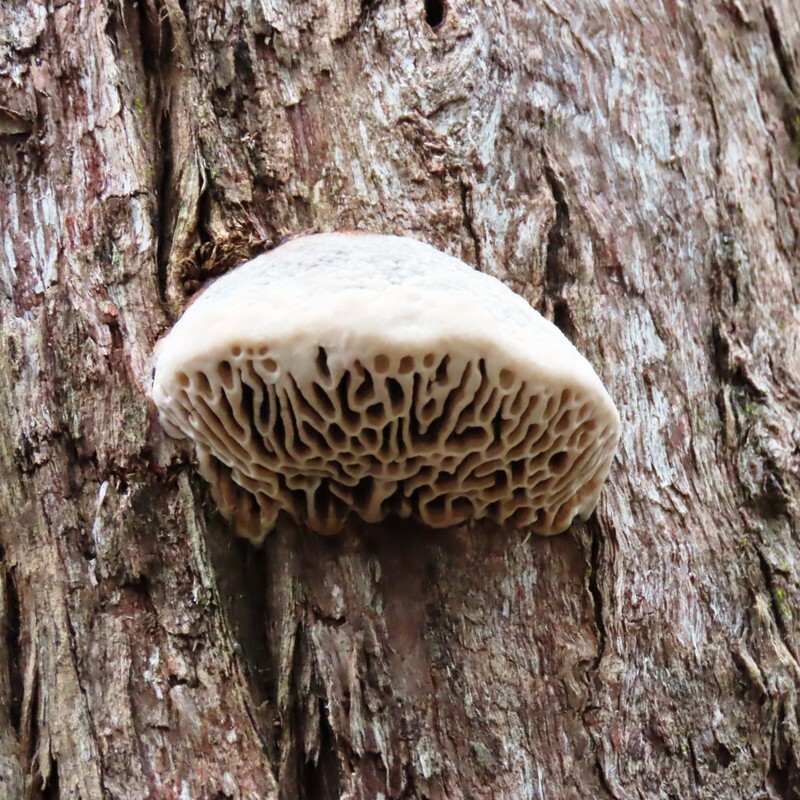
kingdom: Fungi
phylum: Basidiomycota
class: Agaricomycetes
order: Polyporales
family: Polyporaceae
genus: Hexagonia
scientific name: Hexagonia vesparia
